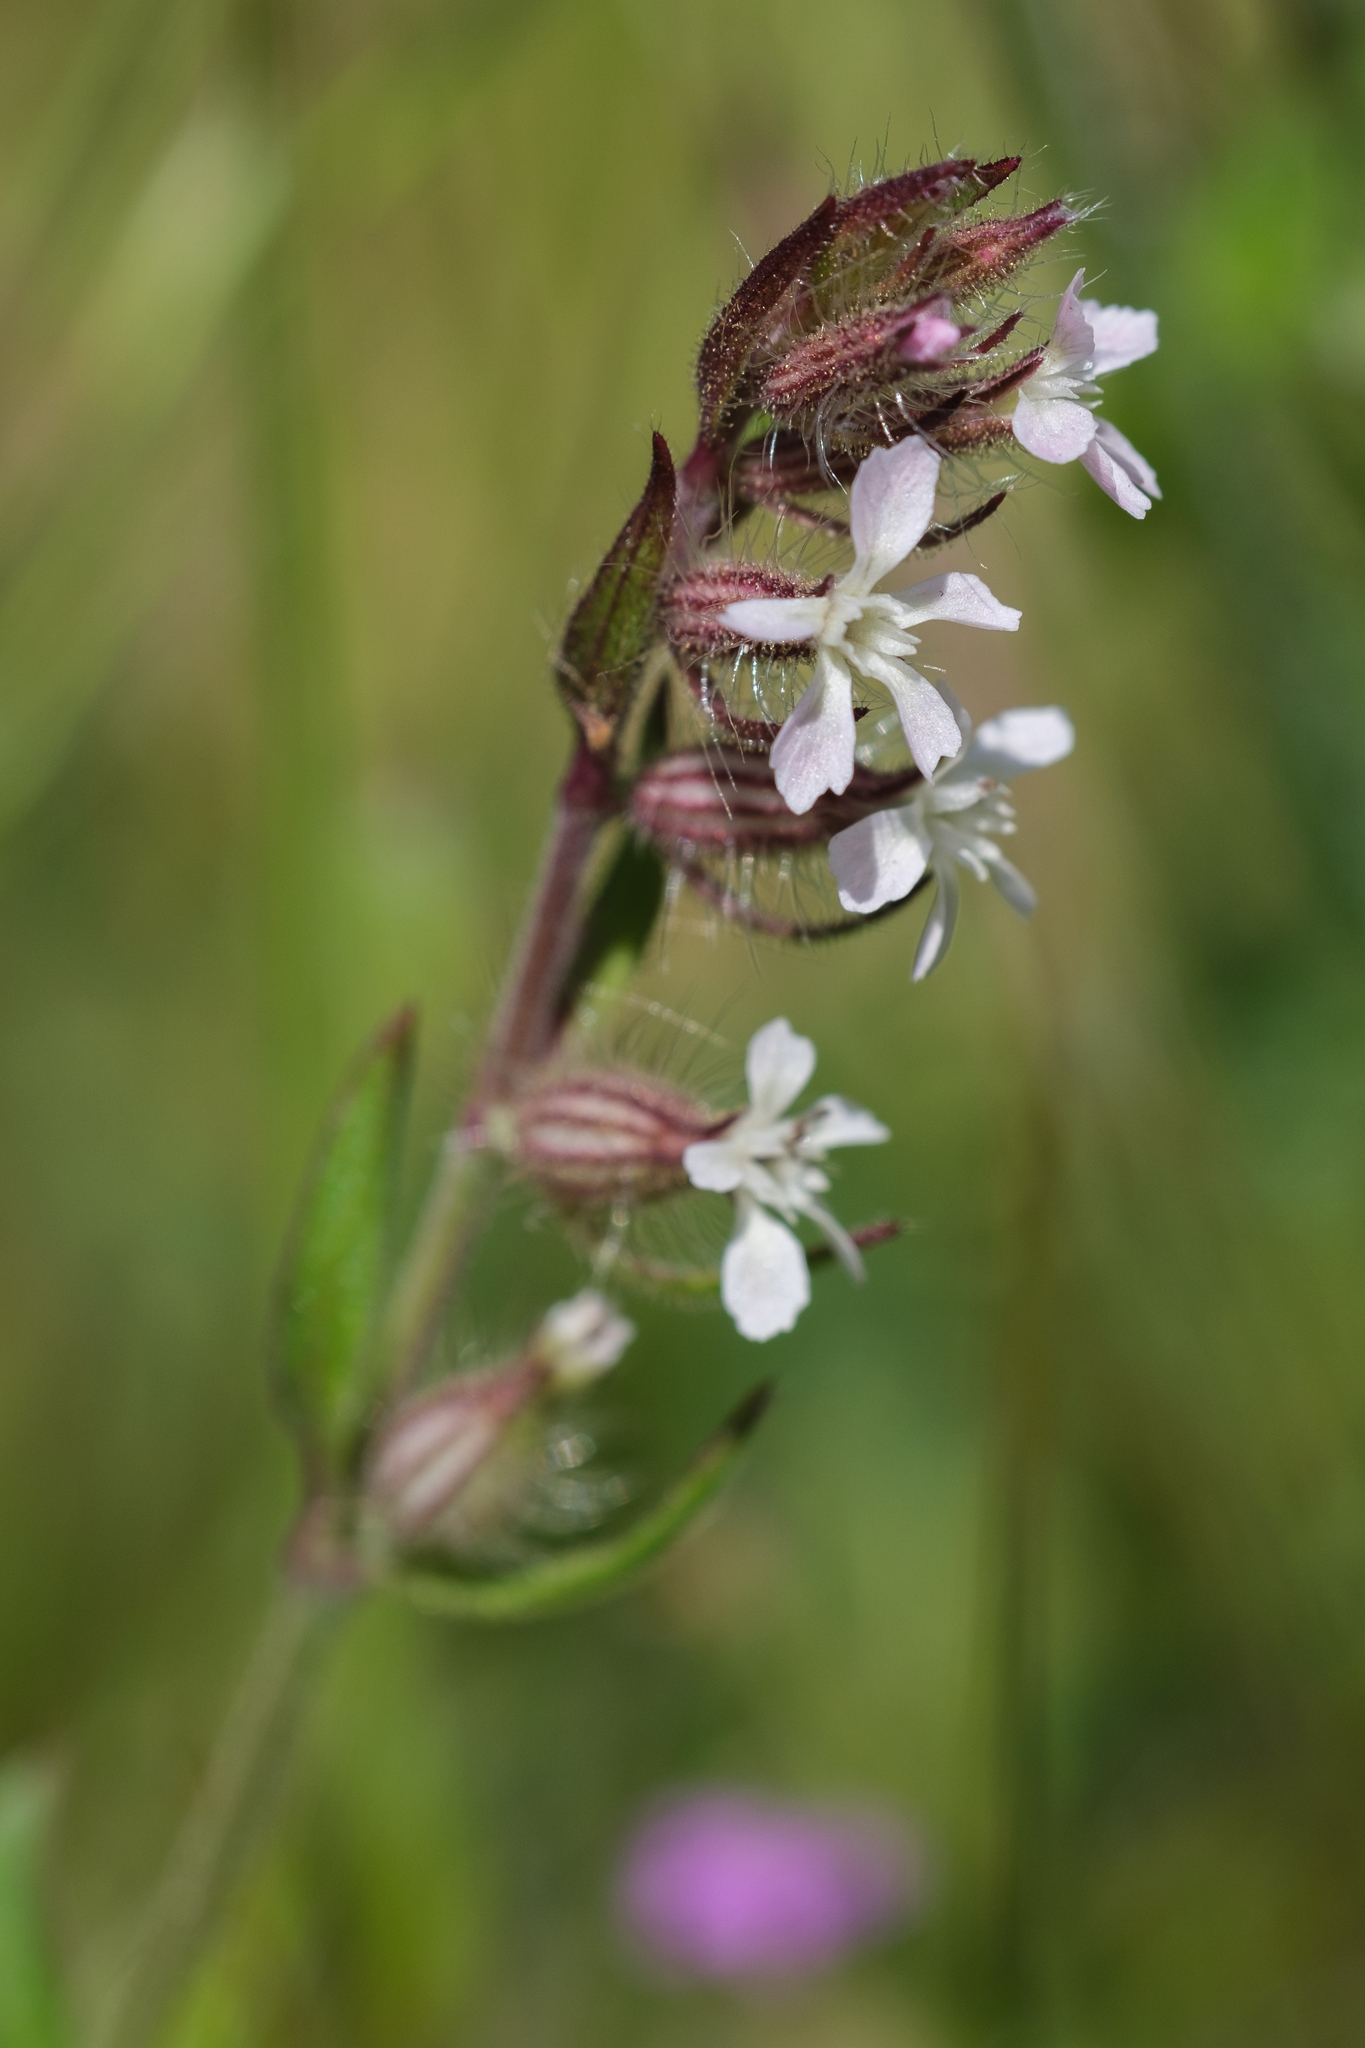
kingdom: Plantae
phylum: Tracheophyta
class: Magnoliopsida
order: Caryophyllales
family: Caryophyllaceae
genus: Silene
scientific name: Silene gallica
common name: Small-flowered catchfly
